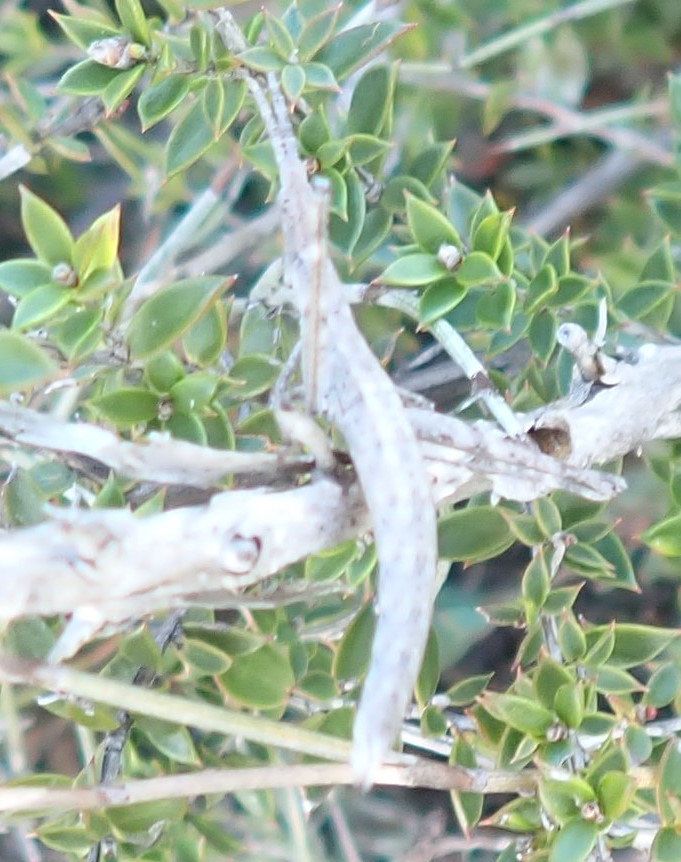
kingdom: Animalia
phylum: Arthropoda
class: Insecta
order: Orthoptera
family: Morabidae
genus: Vandiemenella
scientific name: Vandiemenella viatica
